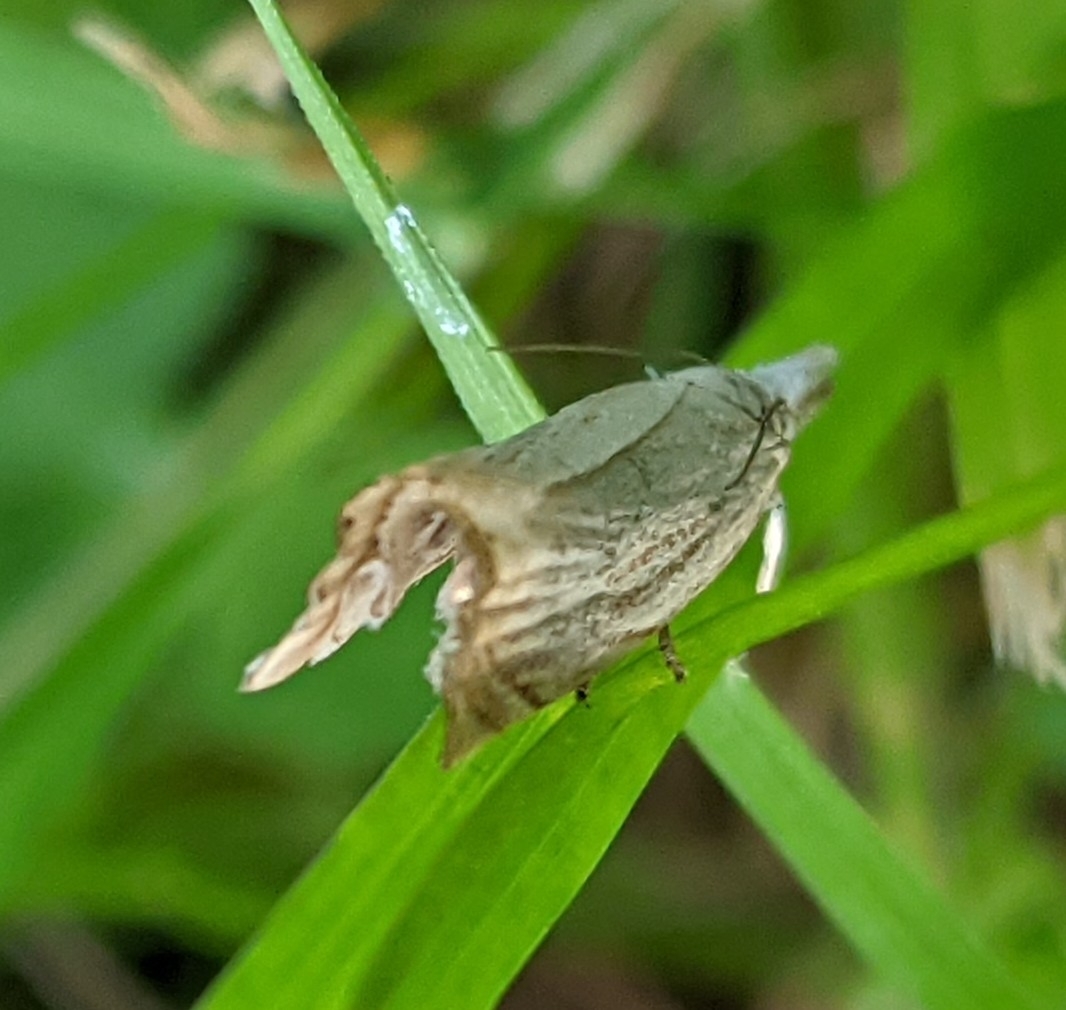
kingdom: Animalia
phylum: Arthropoda
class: Insecta
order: Lepidoptera
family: Crambidae
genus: Chrysoteuchia
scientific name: Chrysoteuchia culmella
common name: Garden grass-veneer
